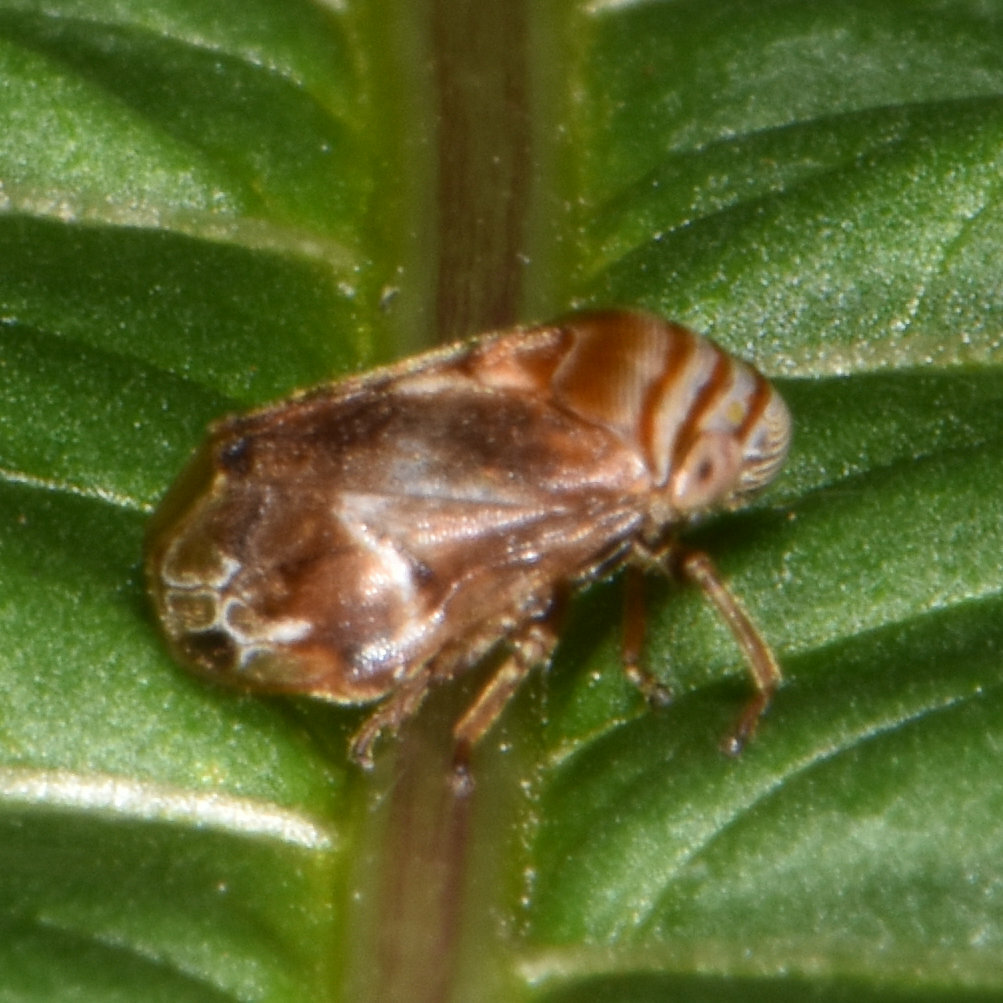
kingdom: Animalia
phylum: Arthropoda
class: Insecta
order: Hemiptera
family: Clastopteridae
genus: Clastoptera
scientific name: Clastoptera obtusa
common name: Alder spittlebug
